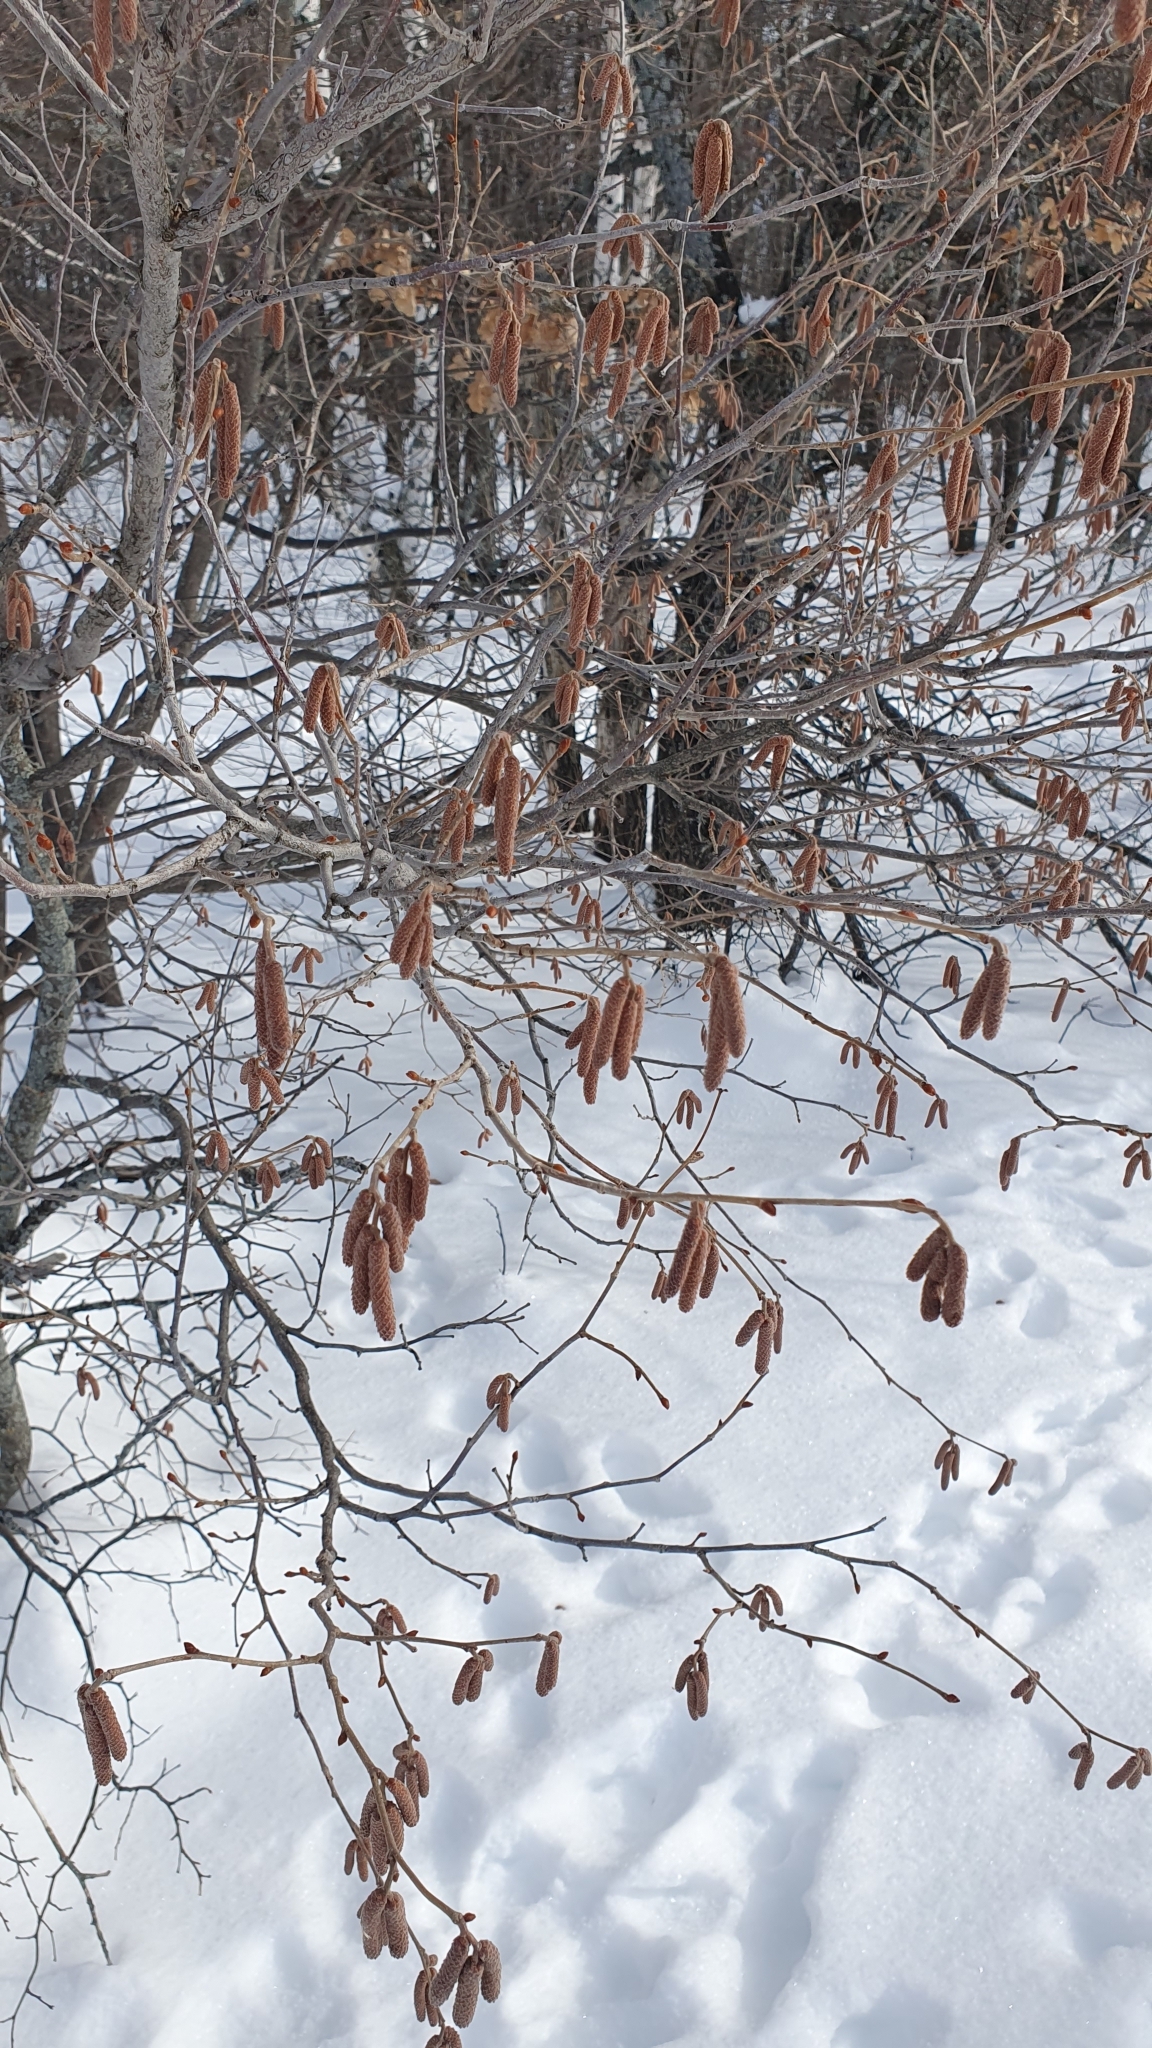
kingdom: Plantae
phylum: Tracheophyta
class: Magnoliopsida
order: Fagales
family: Betulaceae
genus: Corylus
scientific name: Corylus avellana
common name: European hazel
